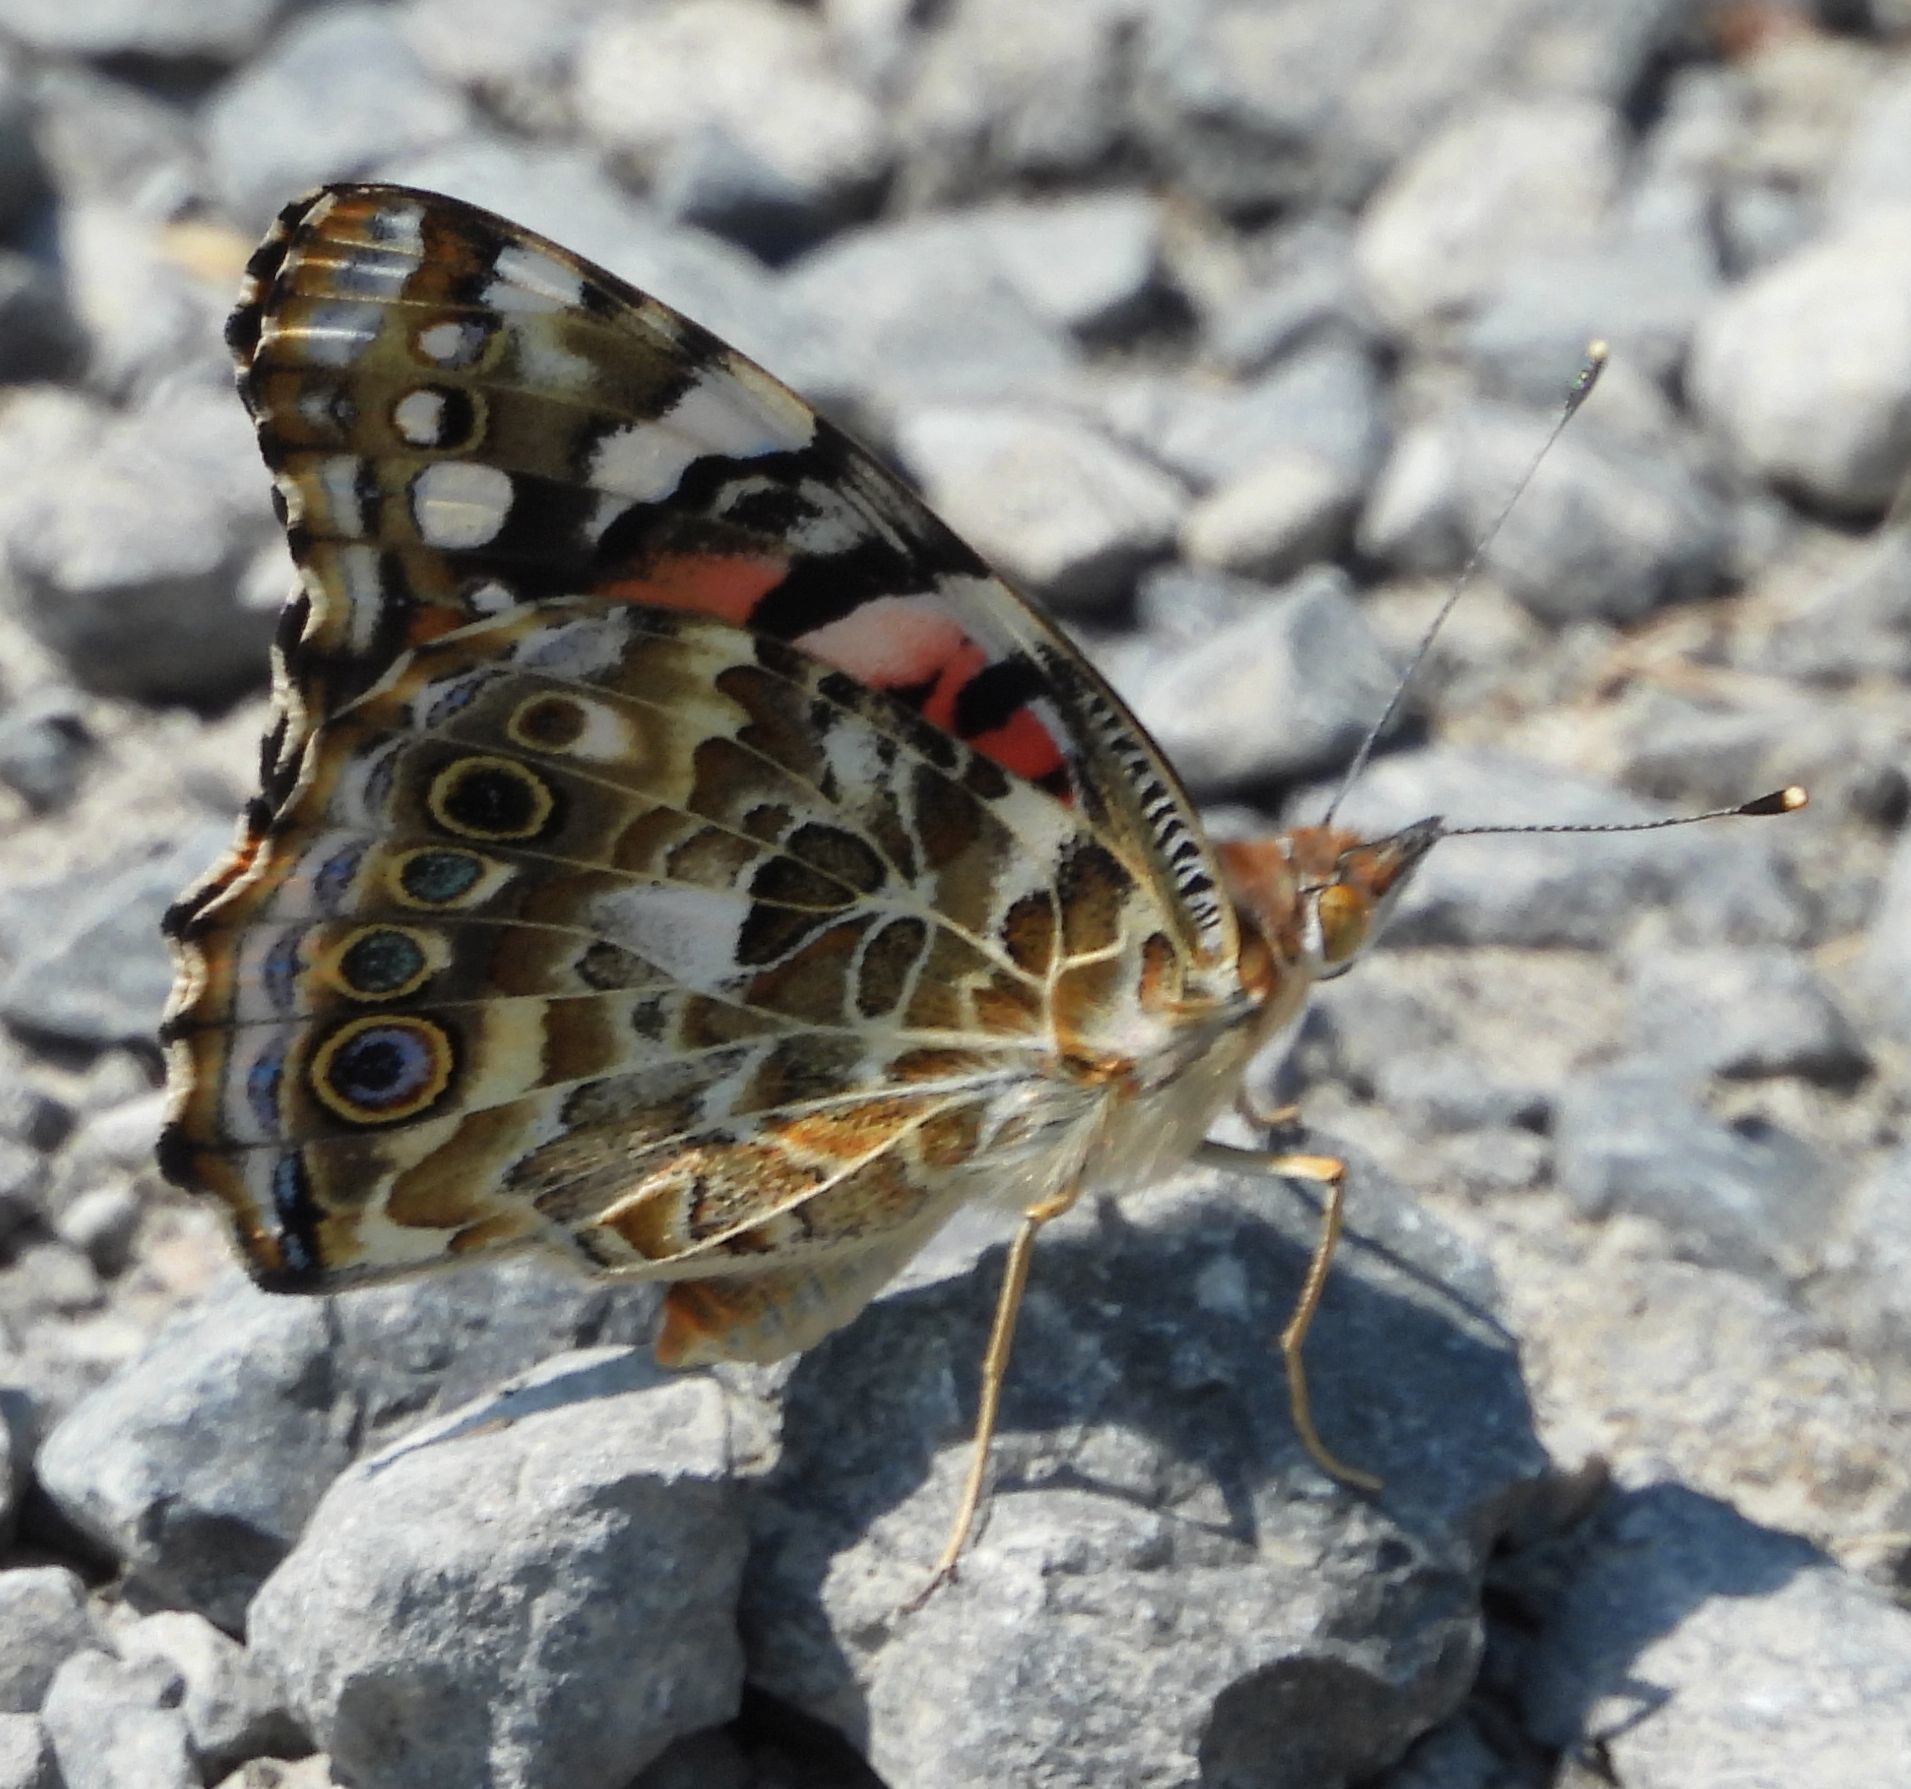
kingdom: Animalia
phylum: Arthropoda
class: Insecta
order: Lepidoptera
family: Nymphalidae
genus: Vanessa
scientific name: Vanessa cardui
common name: Painted lady
